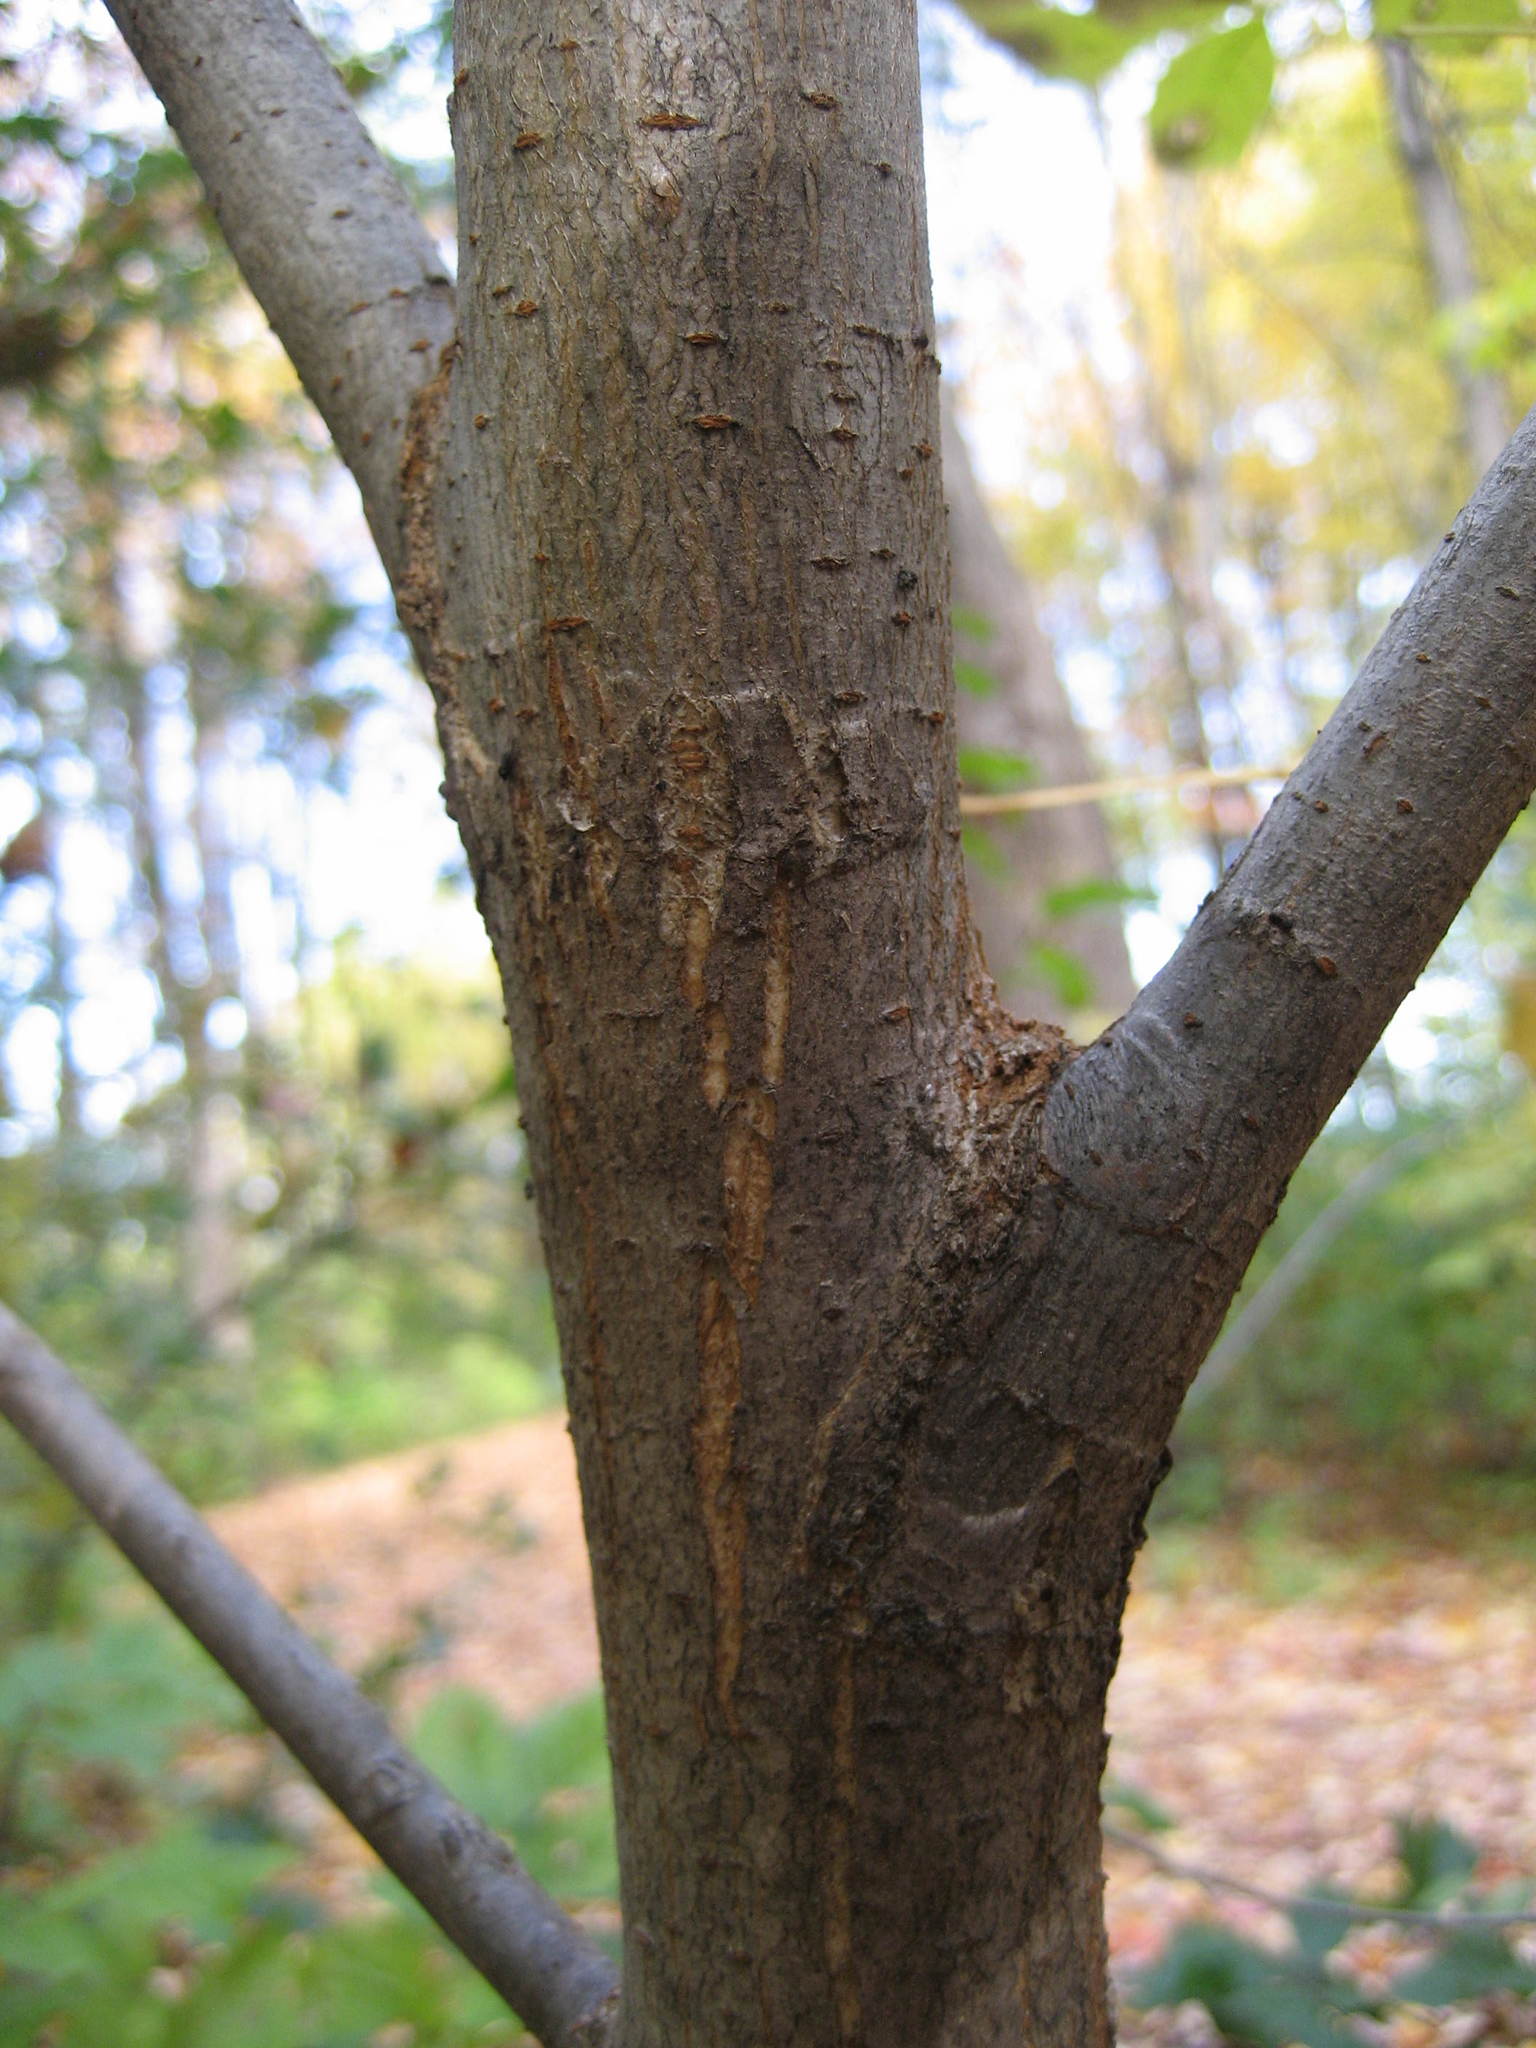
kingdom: Plantae
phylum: Tracheophyta
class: Magnoliopsida
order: Rosales
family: Ulmaceae
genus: Ulmus
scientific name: Ulmus americana
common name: American elm
